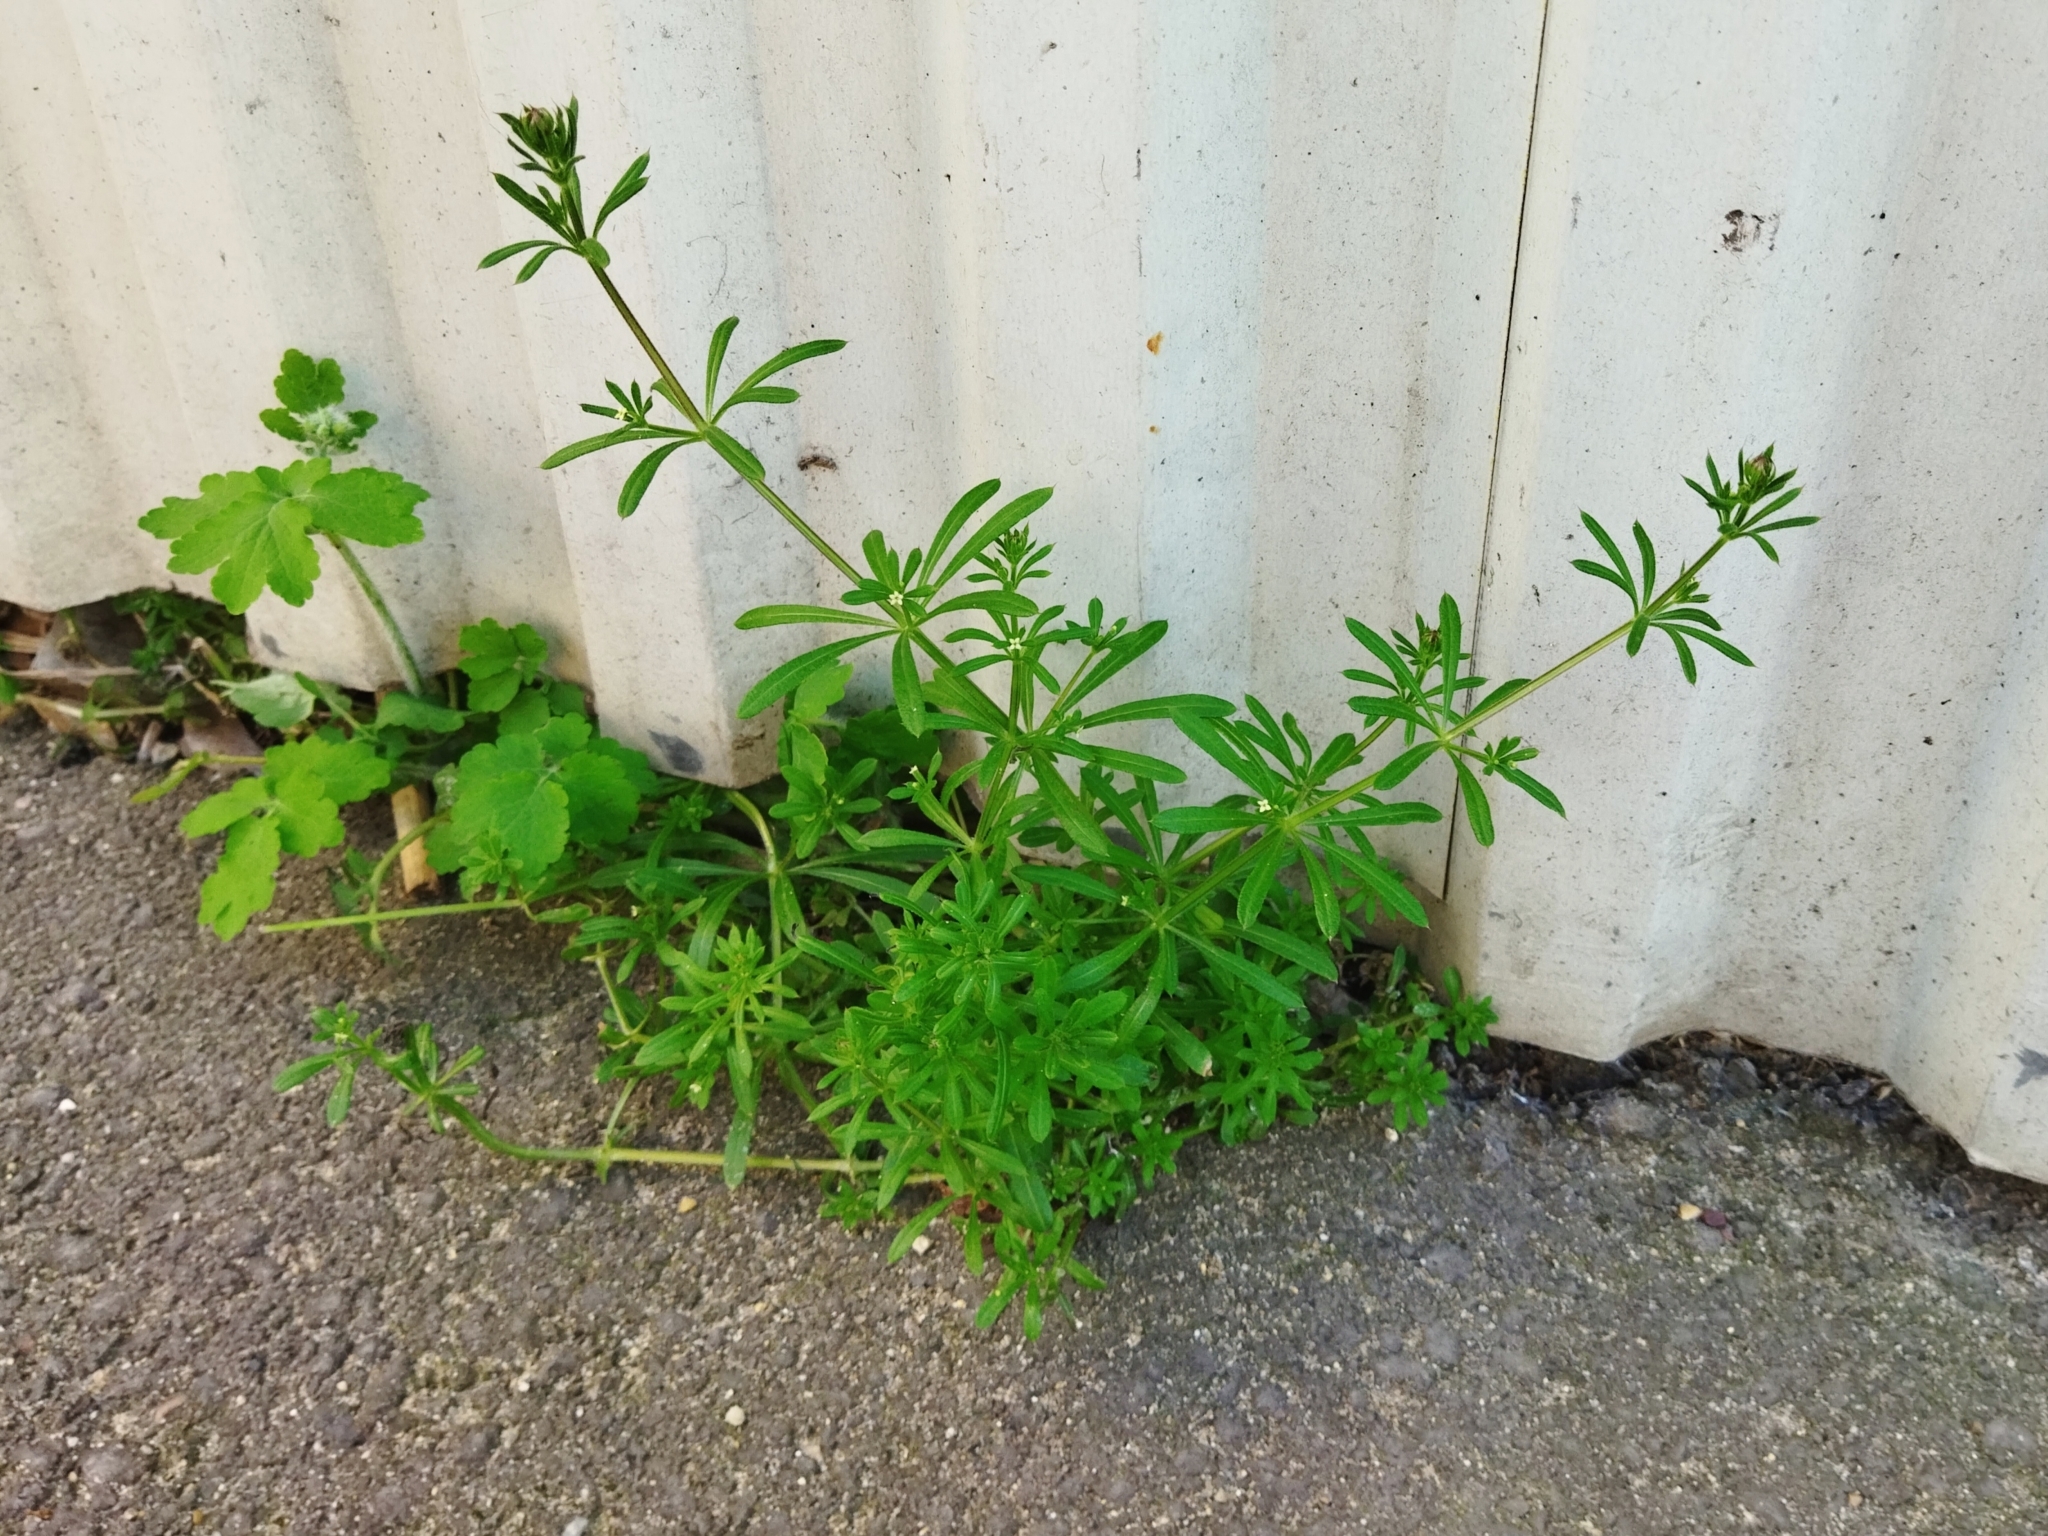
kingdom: Plantae
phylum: Tracheophyta
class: Magnoliopsida
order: Gentianales
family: Rubiaceae
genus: Galium
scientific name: Galium aparine
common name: Cleavers
